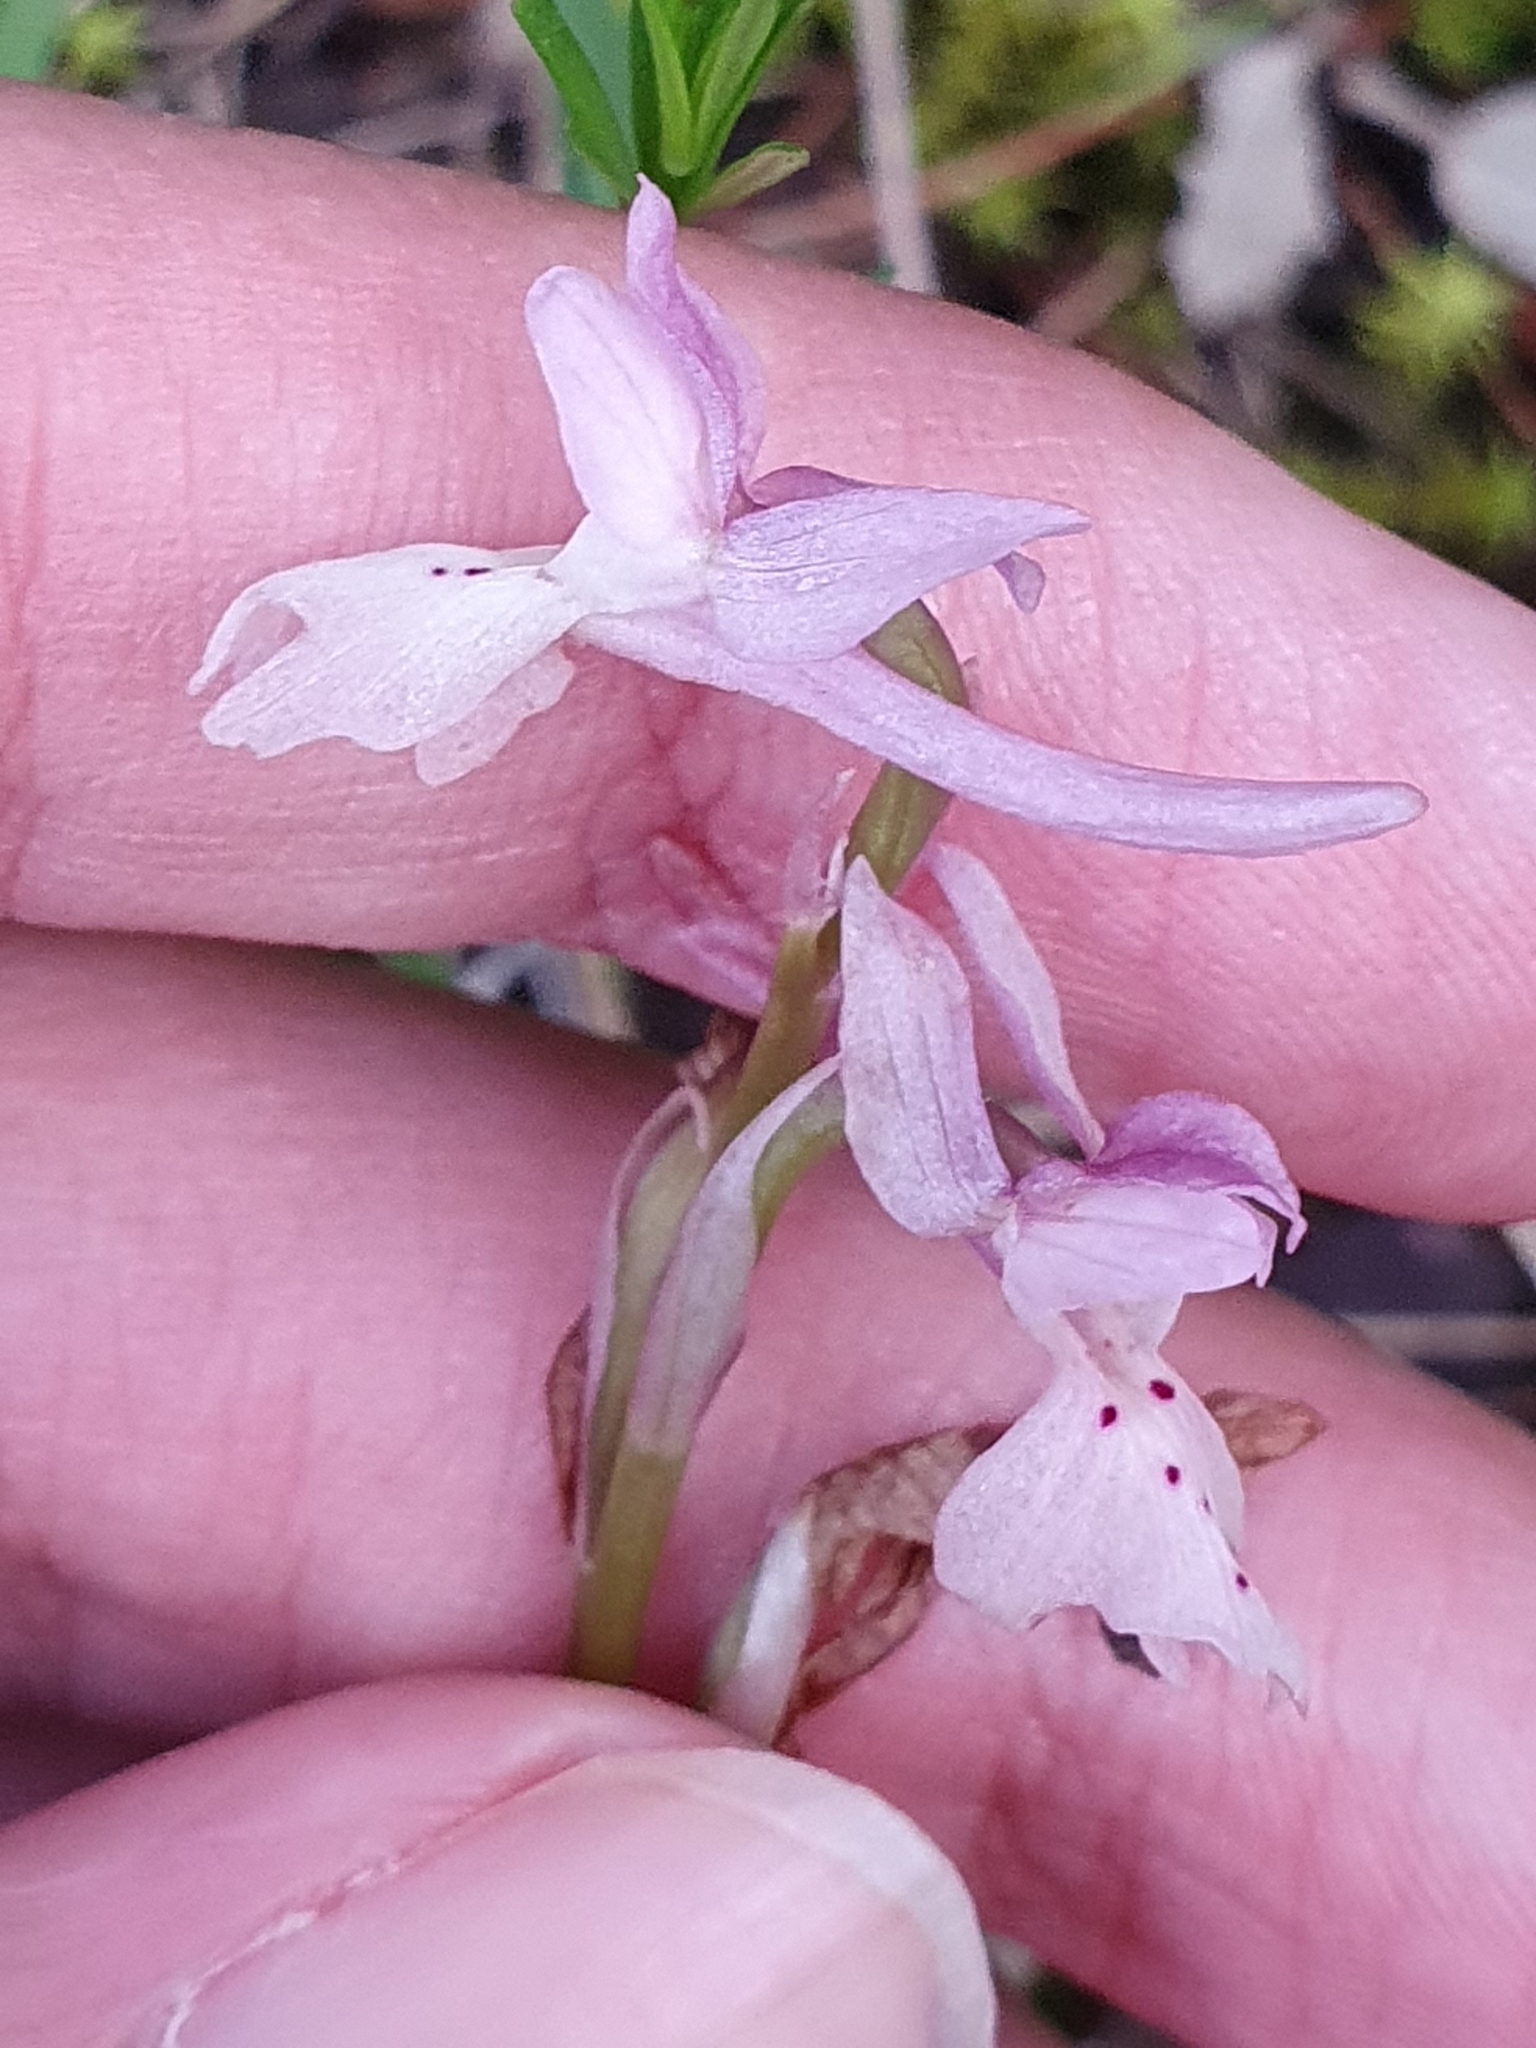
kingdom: Plantae
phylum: Tracheophyta
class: Liliopsida
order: Asparagales
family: Orchidaceae
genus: Orchis
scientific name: Orchis laeta
